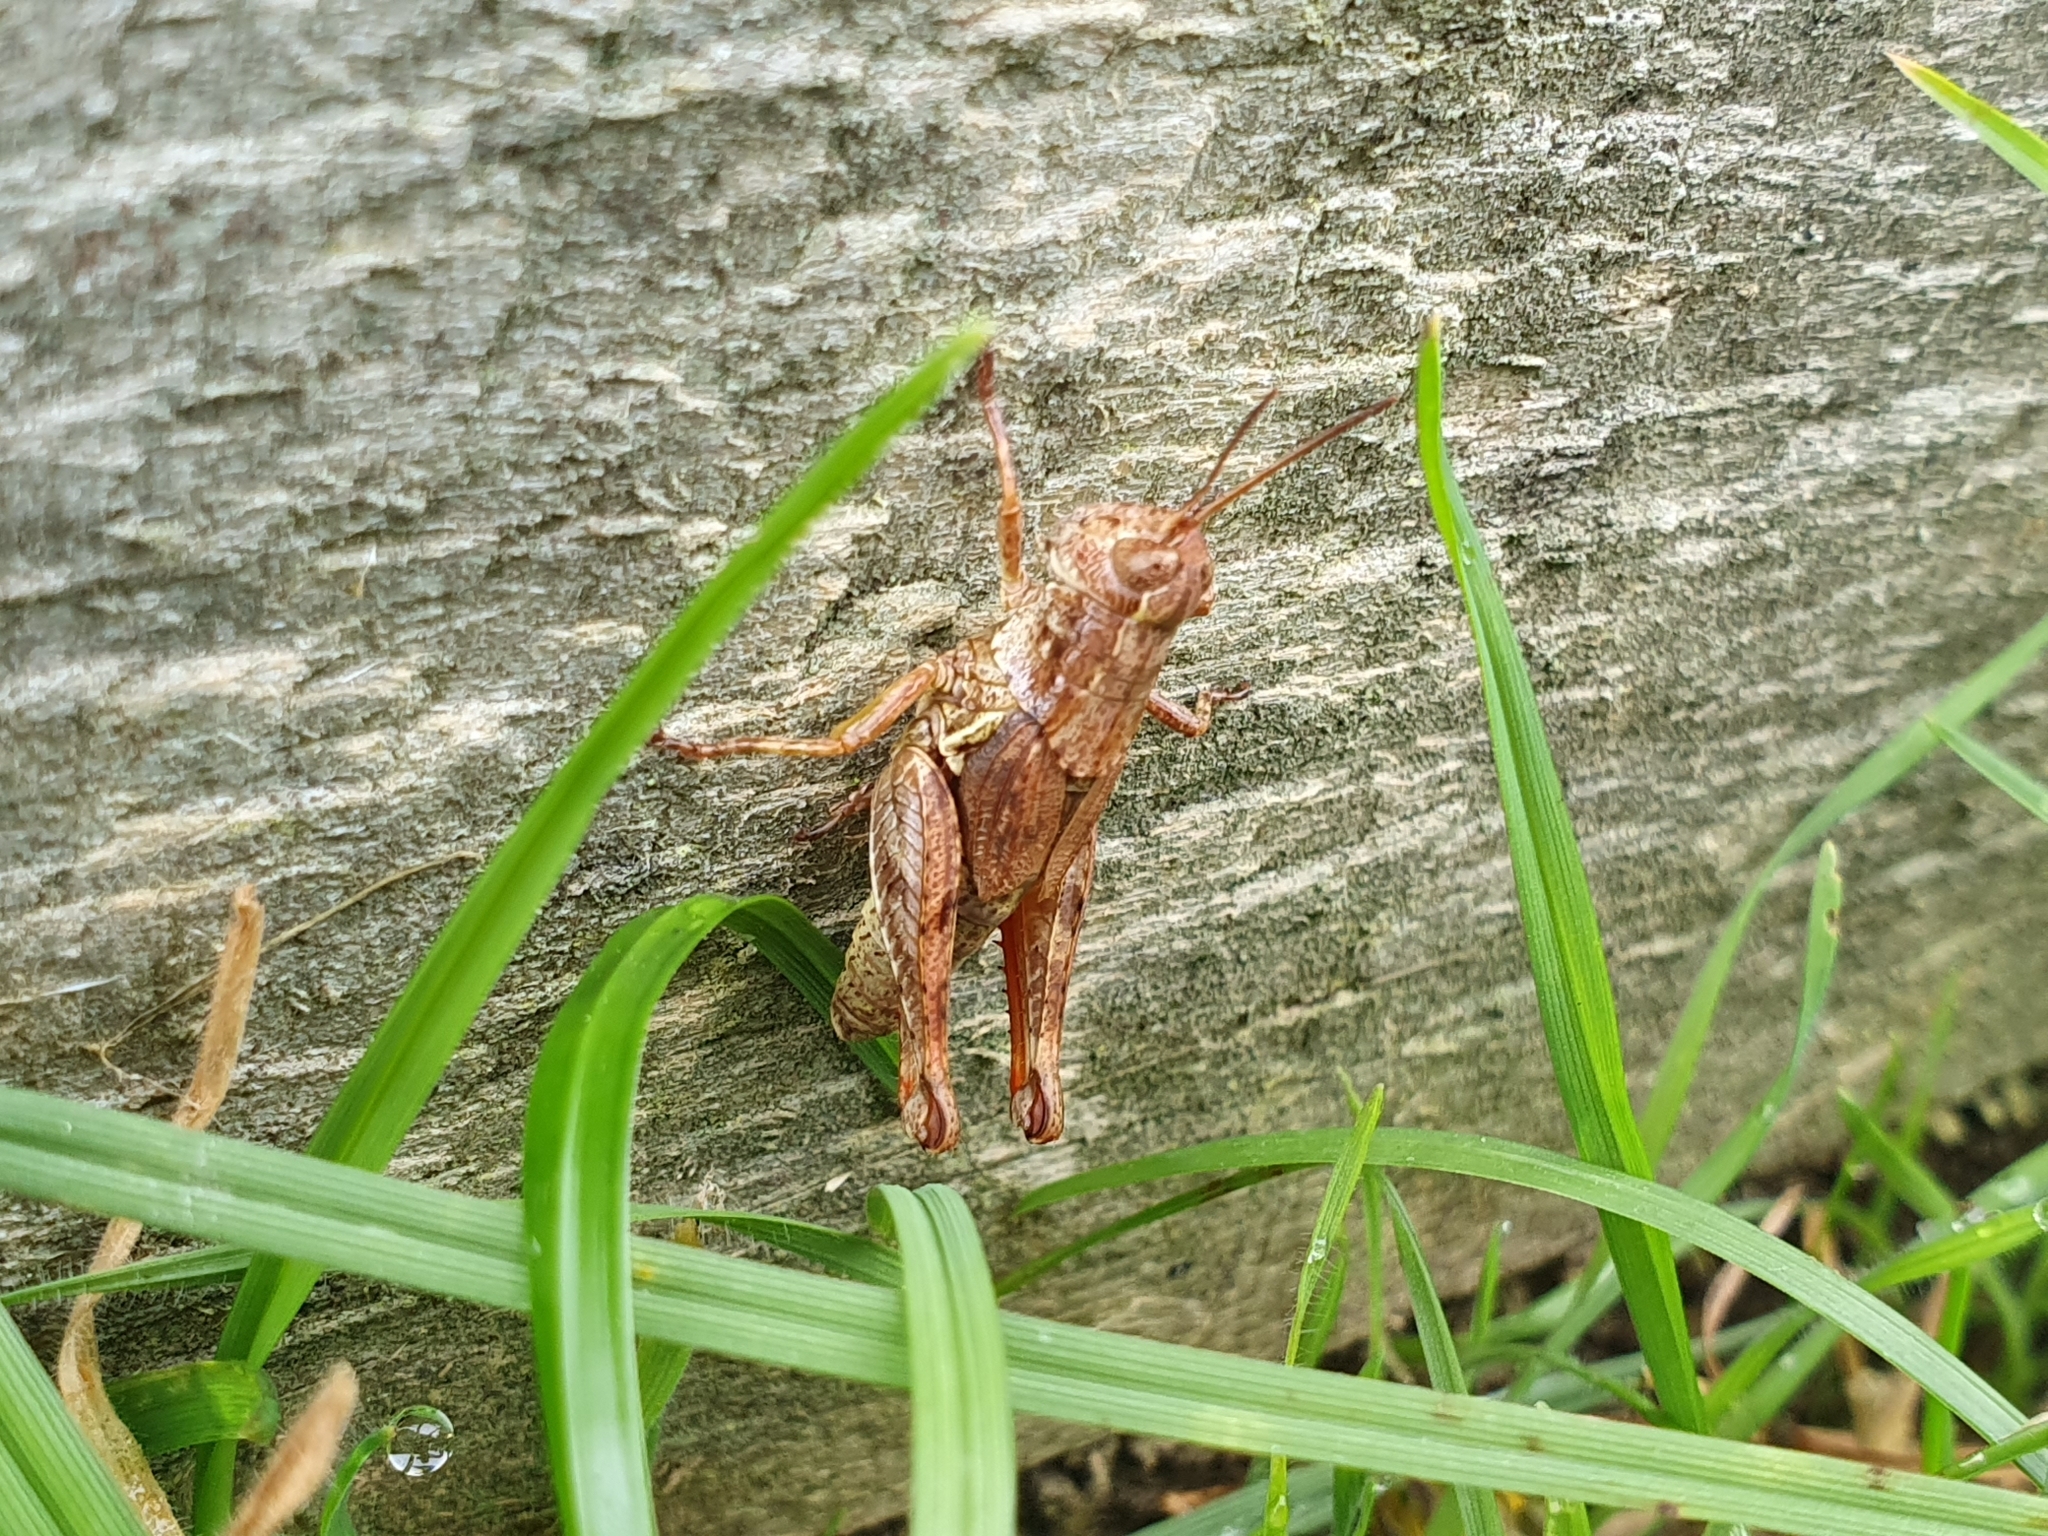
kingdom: Animalia
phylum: Arthropoda
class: Insecta
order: Orthoptera
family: Acrididae
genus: Phaulacridium
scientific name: Phaulacridium marginale
